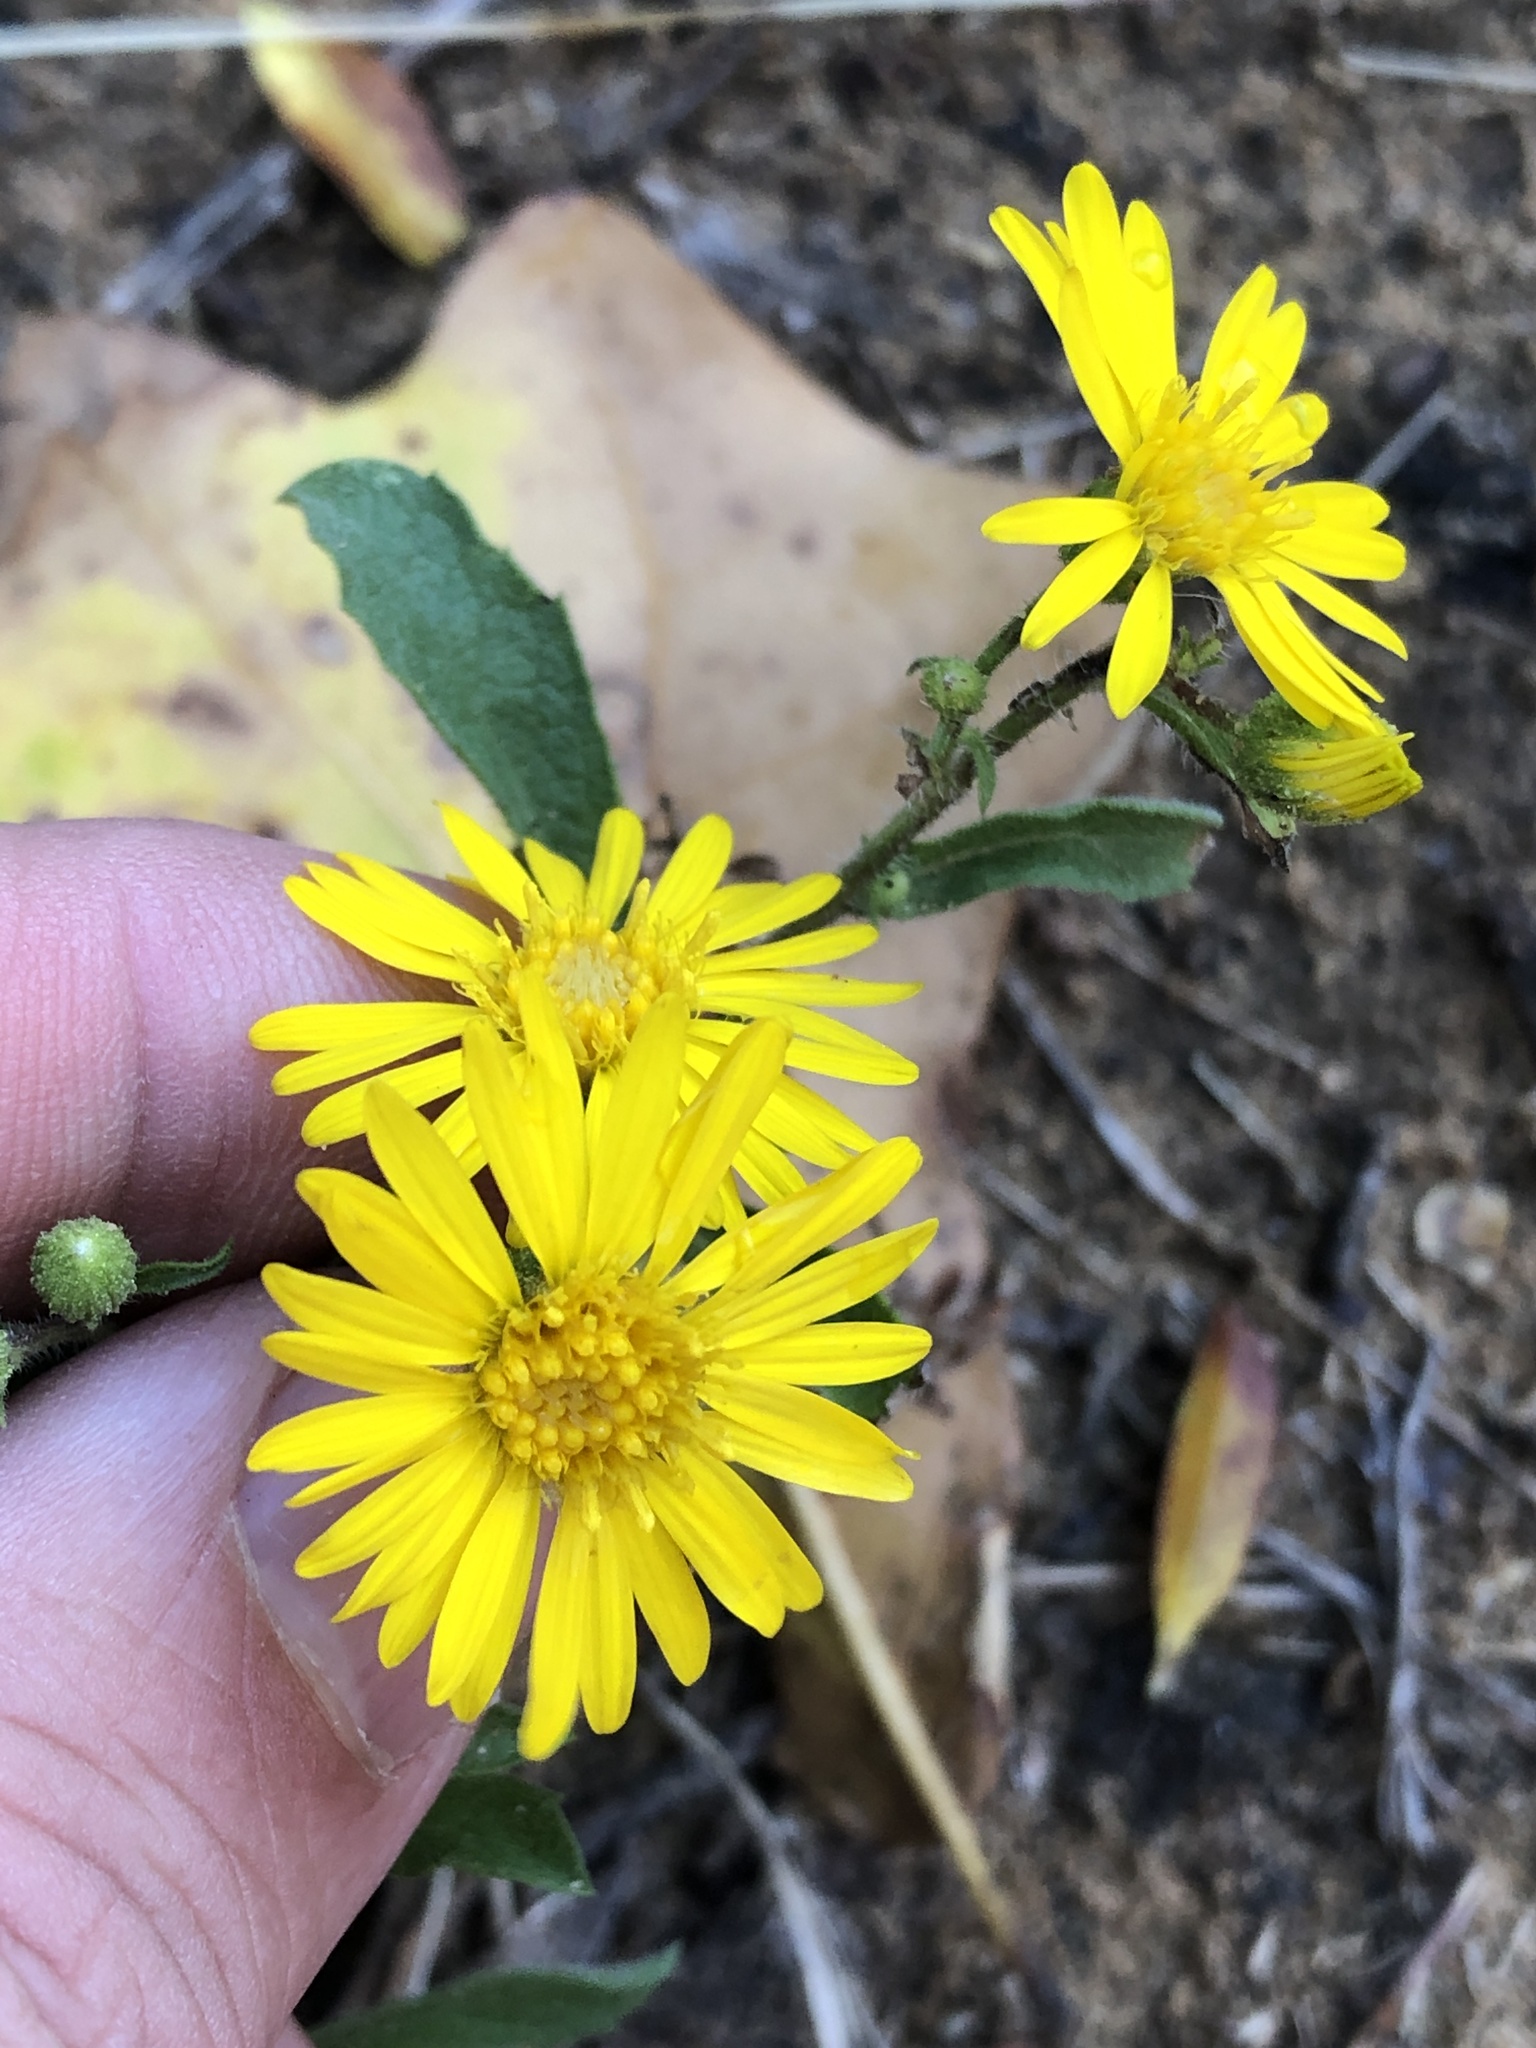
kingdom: Plantae
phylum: Tracheophyta
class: Magnoliopsida
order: Asterales
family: Asteraceae
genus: Heterotheca
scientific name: Heterotheca subaxillaris
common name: Camphorweed
